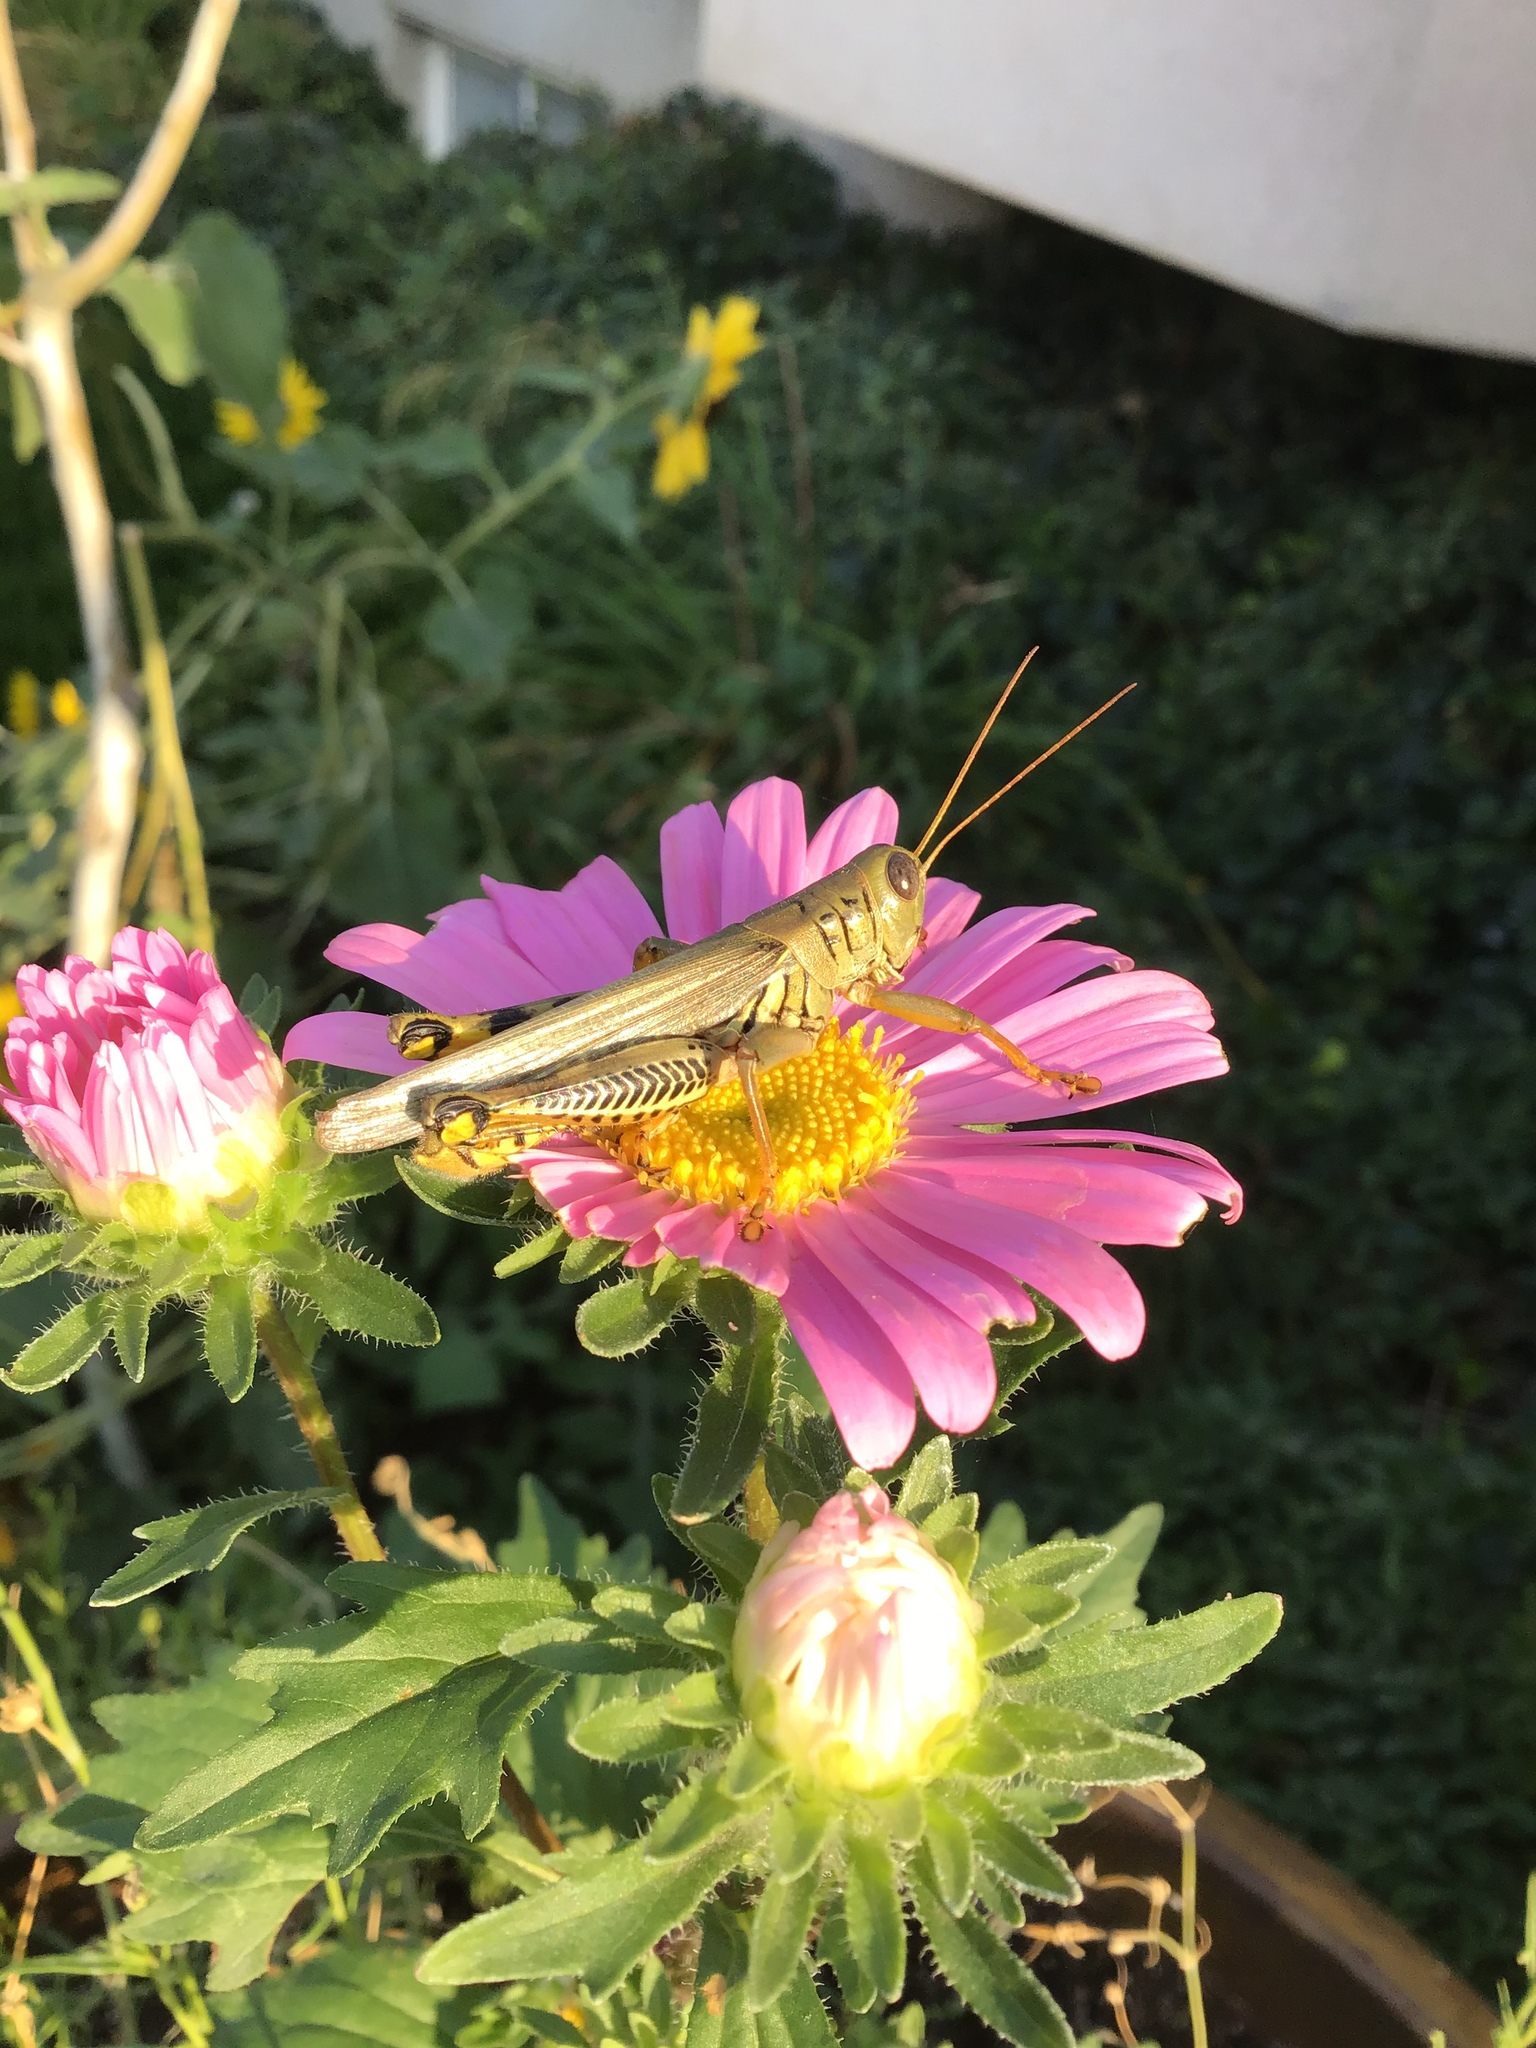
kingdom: Animalia
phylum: Arthropoda
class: Insecta
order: Orthoptera
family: Acrididae
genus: Melanoplus
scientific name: Melanoplus differentialis
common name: Differential grasshopper
